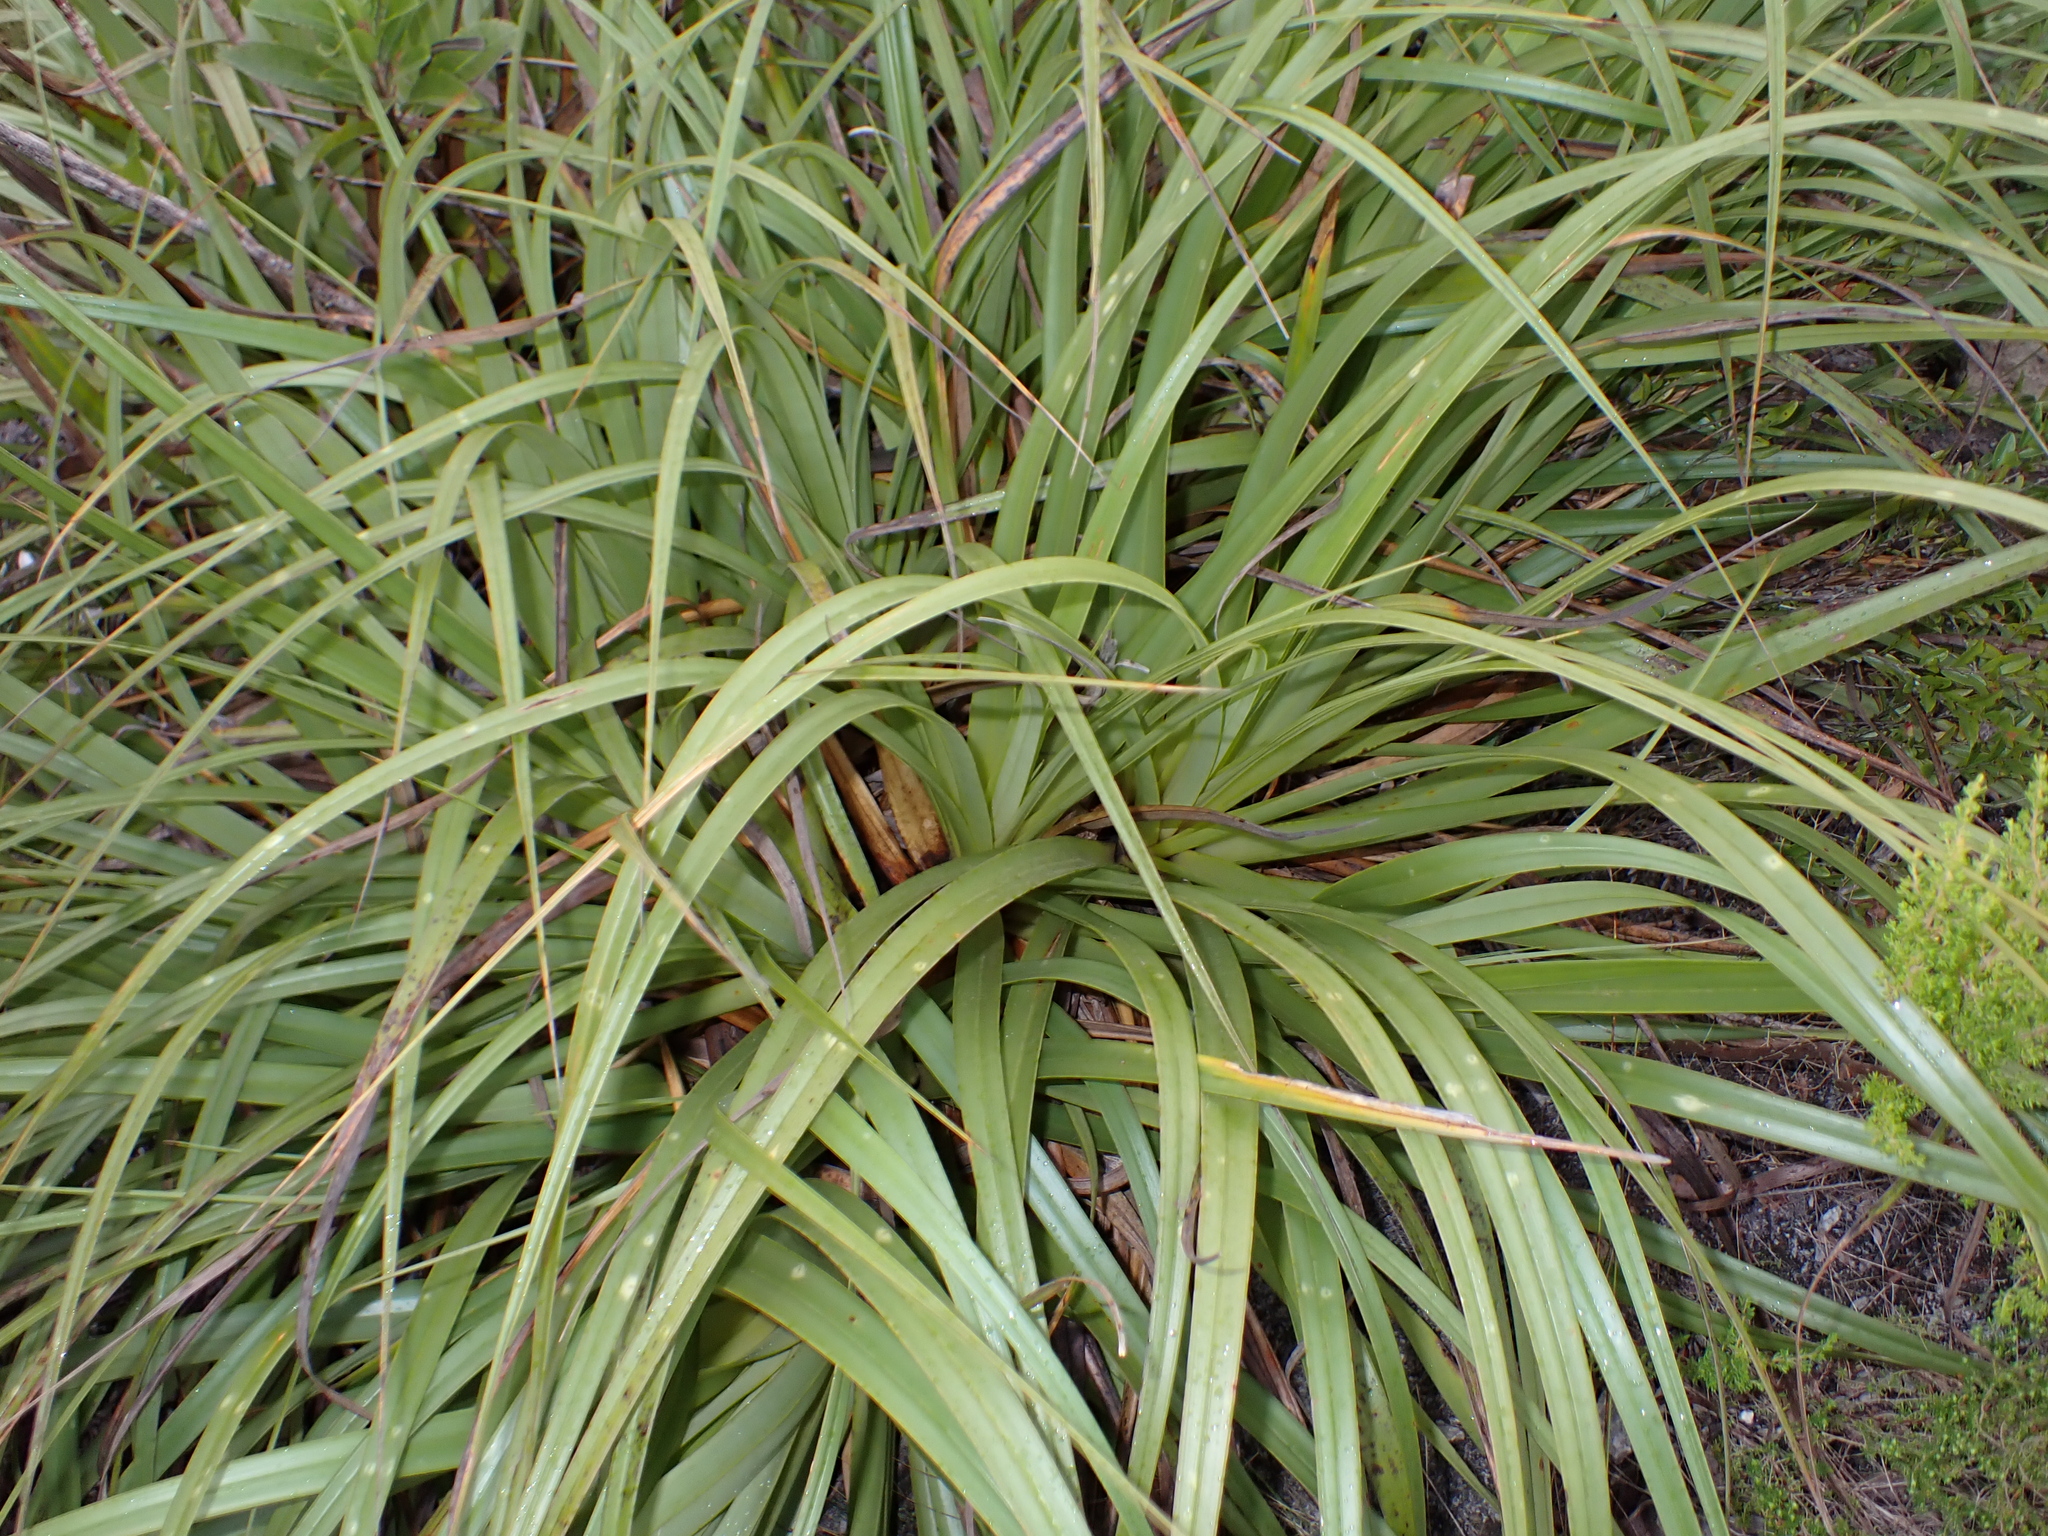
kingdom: Plantae
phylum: Tracheophyta
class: Liliopsida
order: Poales
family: Cyperaceae
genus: Tetraria
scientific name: Tetraria thermalis
